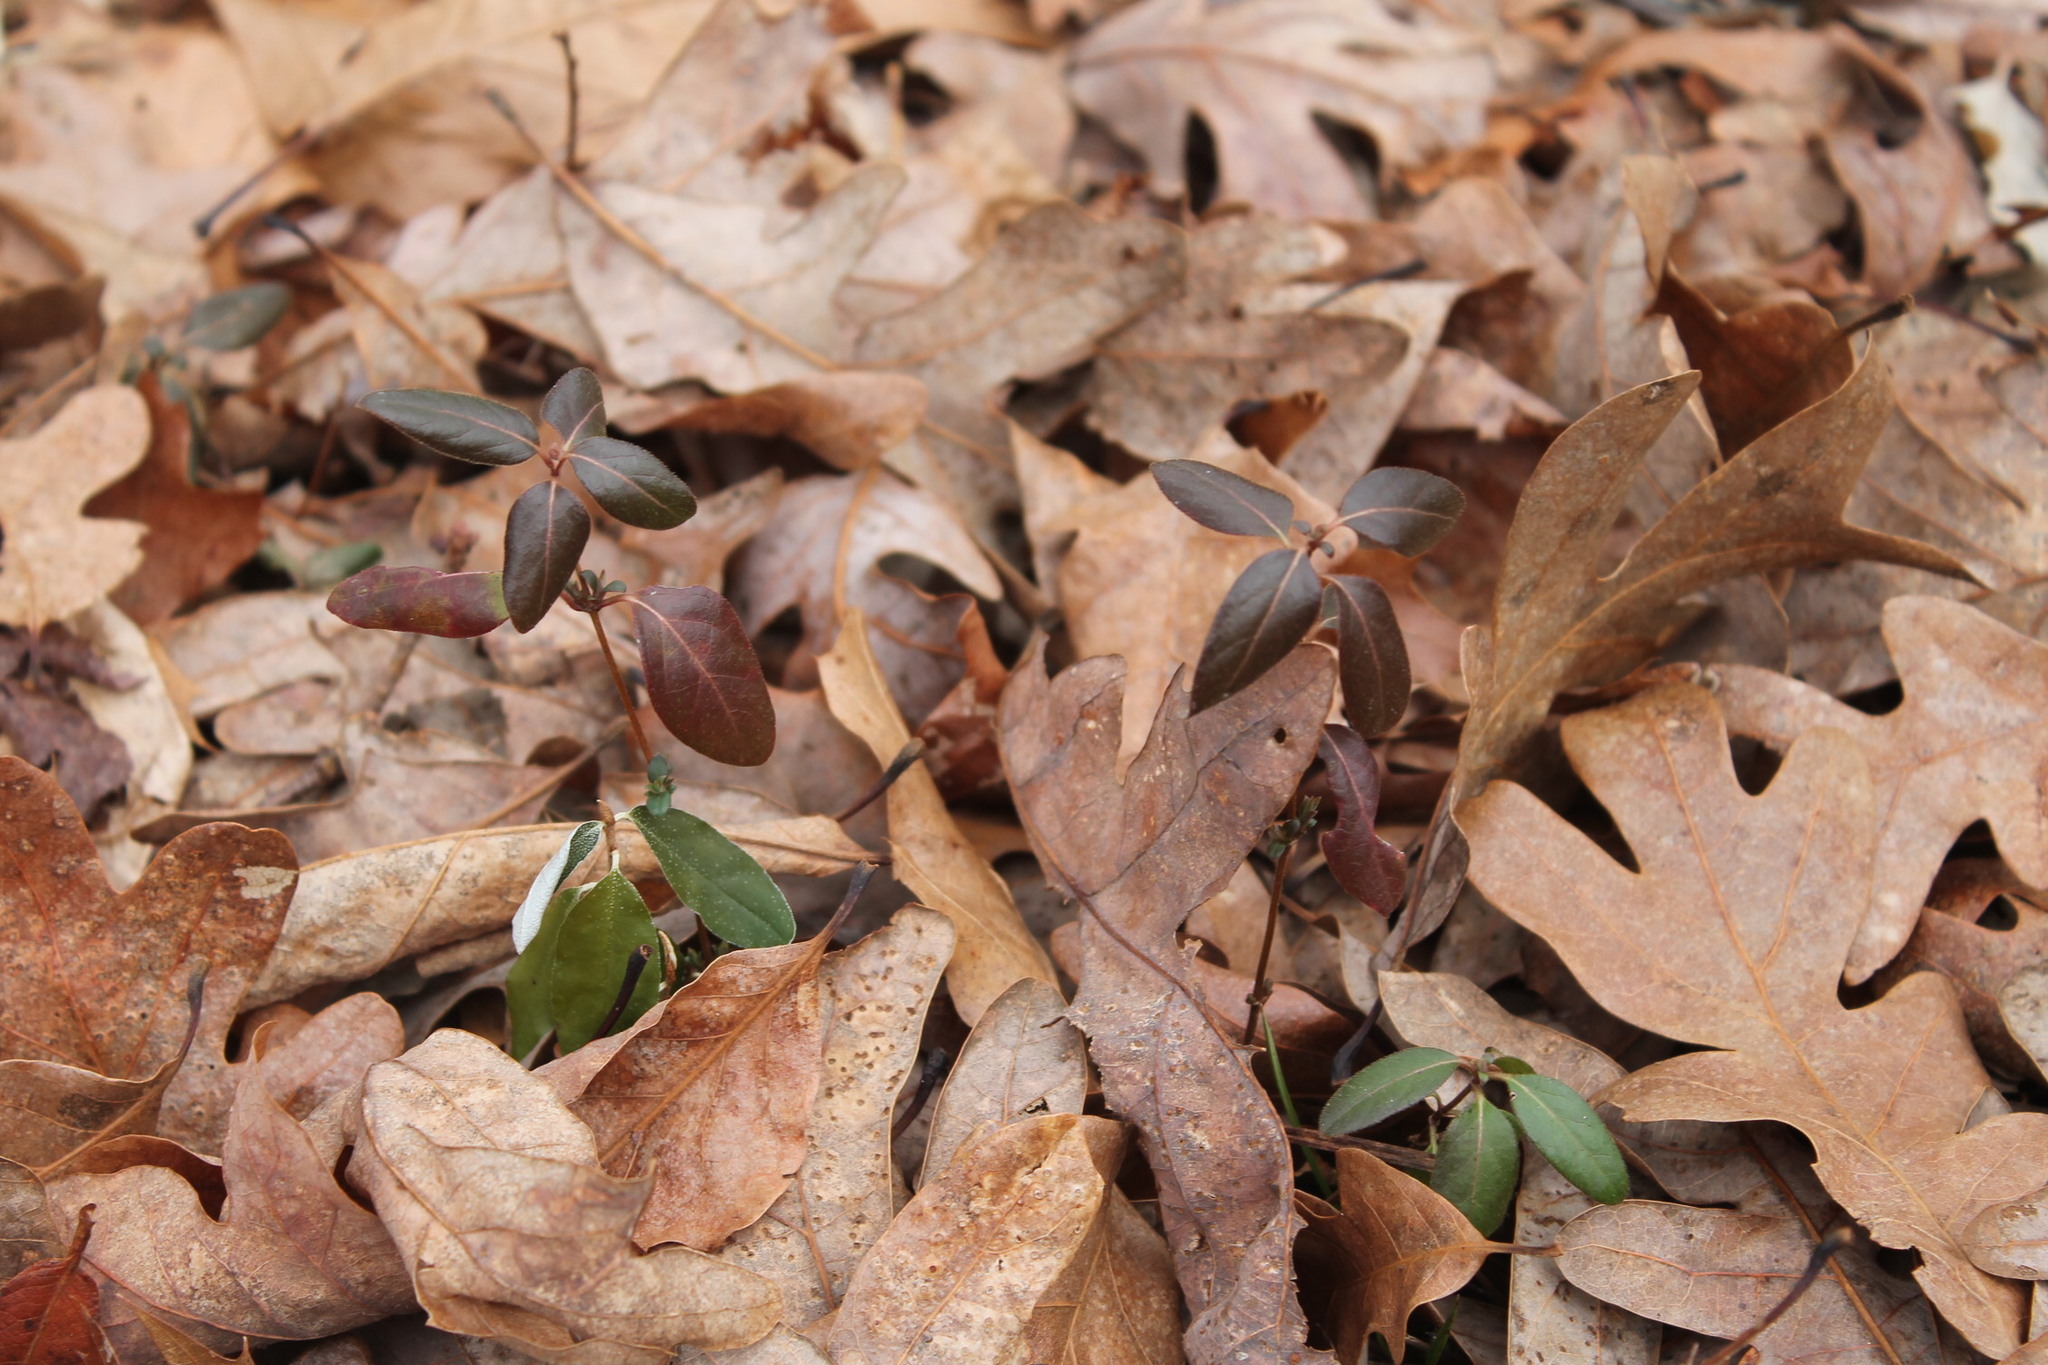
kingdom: Plantae
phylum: Tracheophyta
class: Magnoliopsida
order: Dipsacales
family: Caprifoliaceae
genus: Lonicera
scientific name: Lonicera japonica
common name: Japanese honeysuckle
